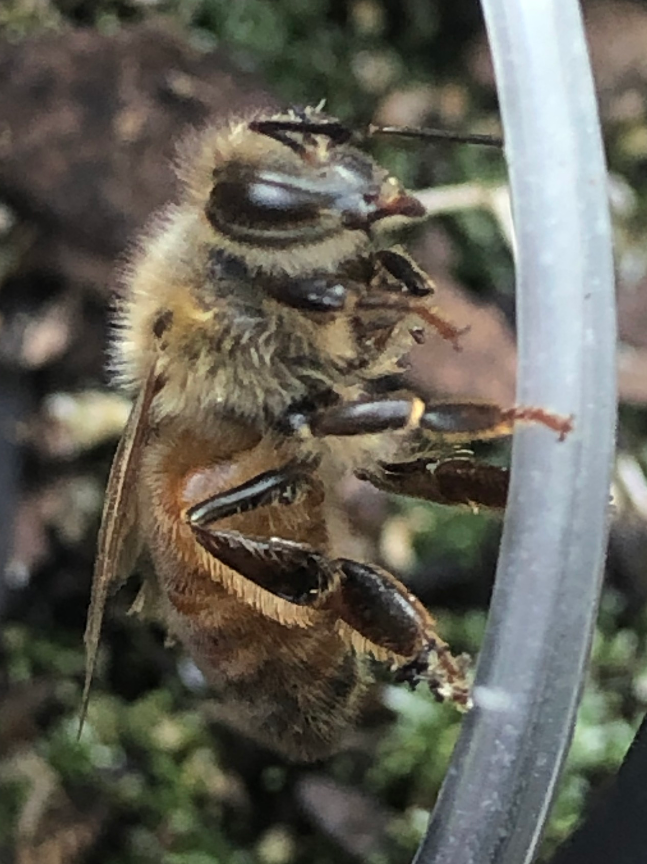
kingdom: Animalia
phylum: Arthropoda
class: Insecta
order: Hymenoptera
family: Apidae
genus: Apis
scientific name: Apis mellifera
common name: Honey bee
